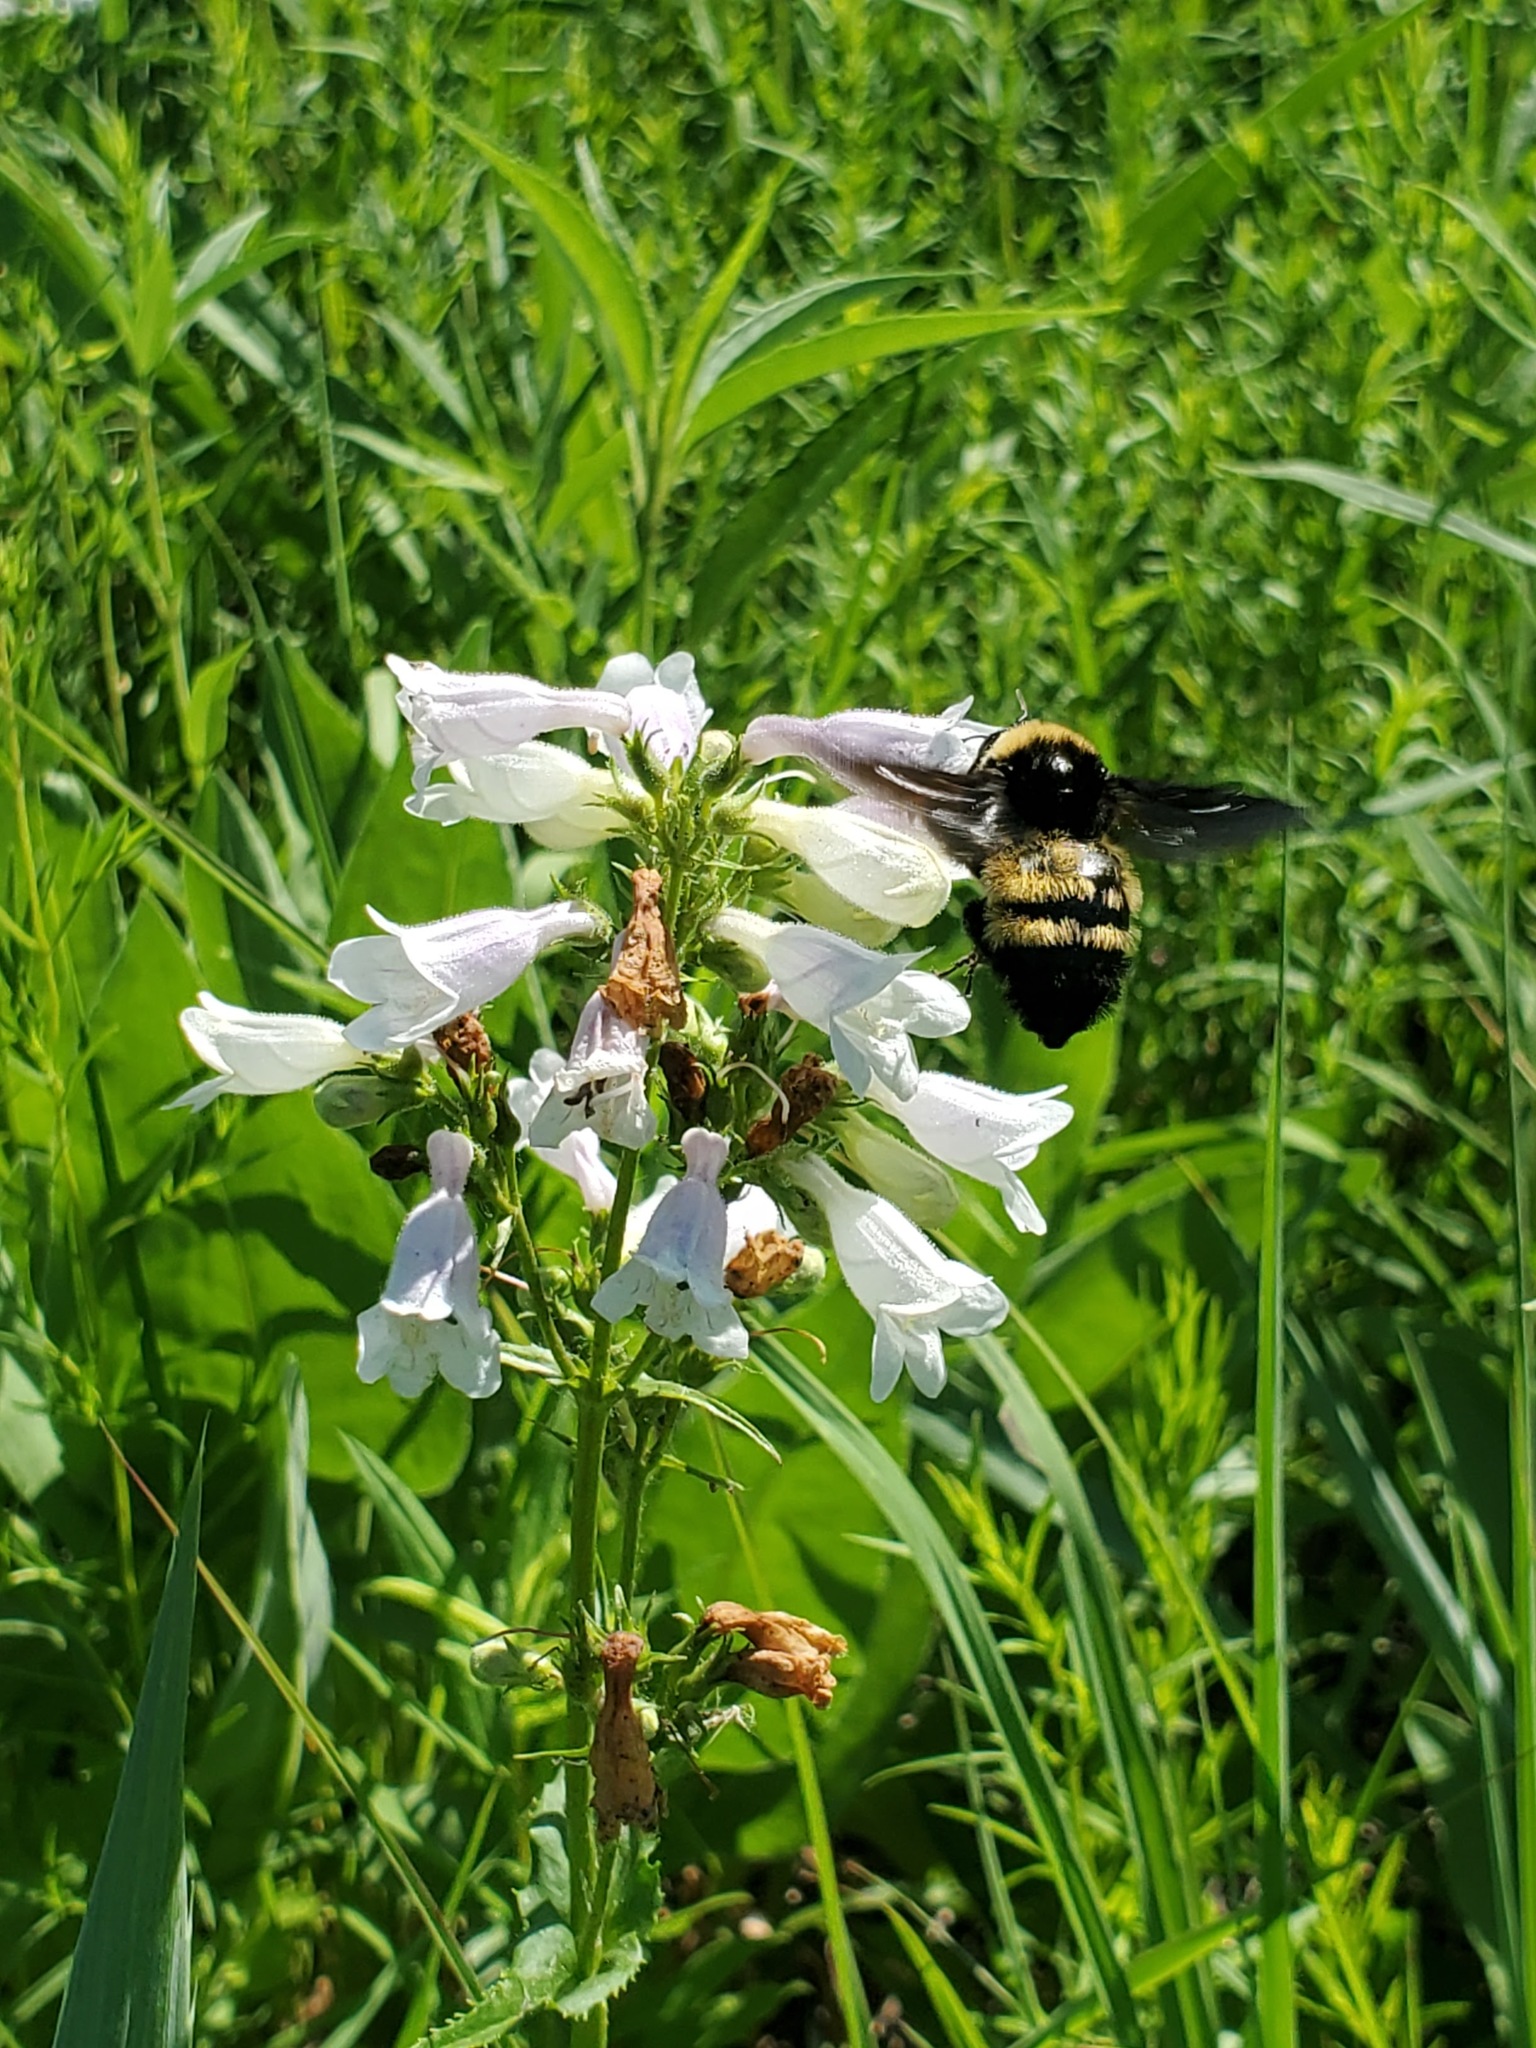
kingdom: Plantae
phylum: Tracheophyta
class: Magnoliopsida
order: Lamiales
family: Plantaginaceae
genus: Penstemon
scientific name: Penstemon digitalis
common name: Foxglove beardtongue
